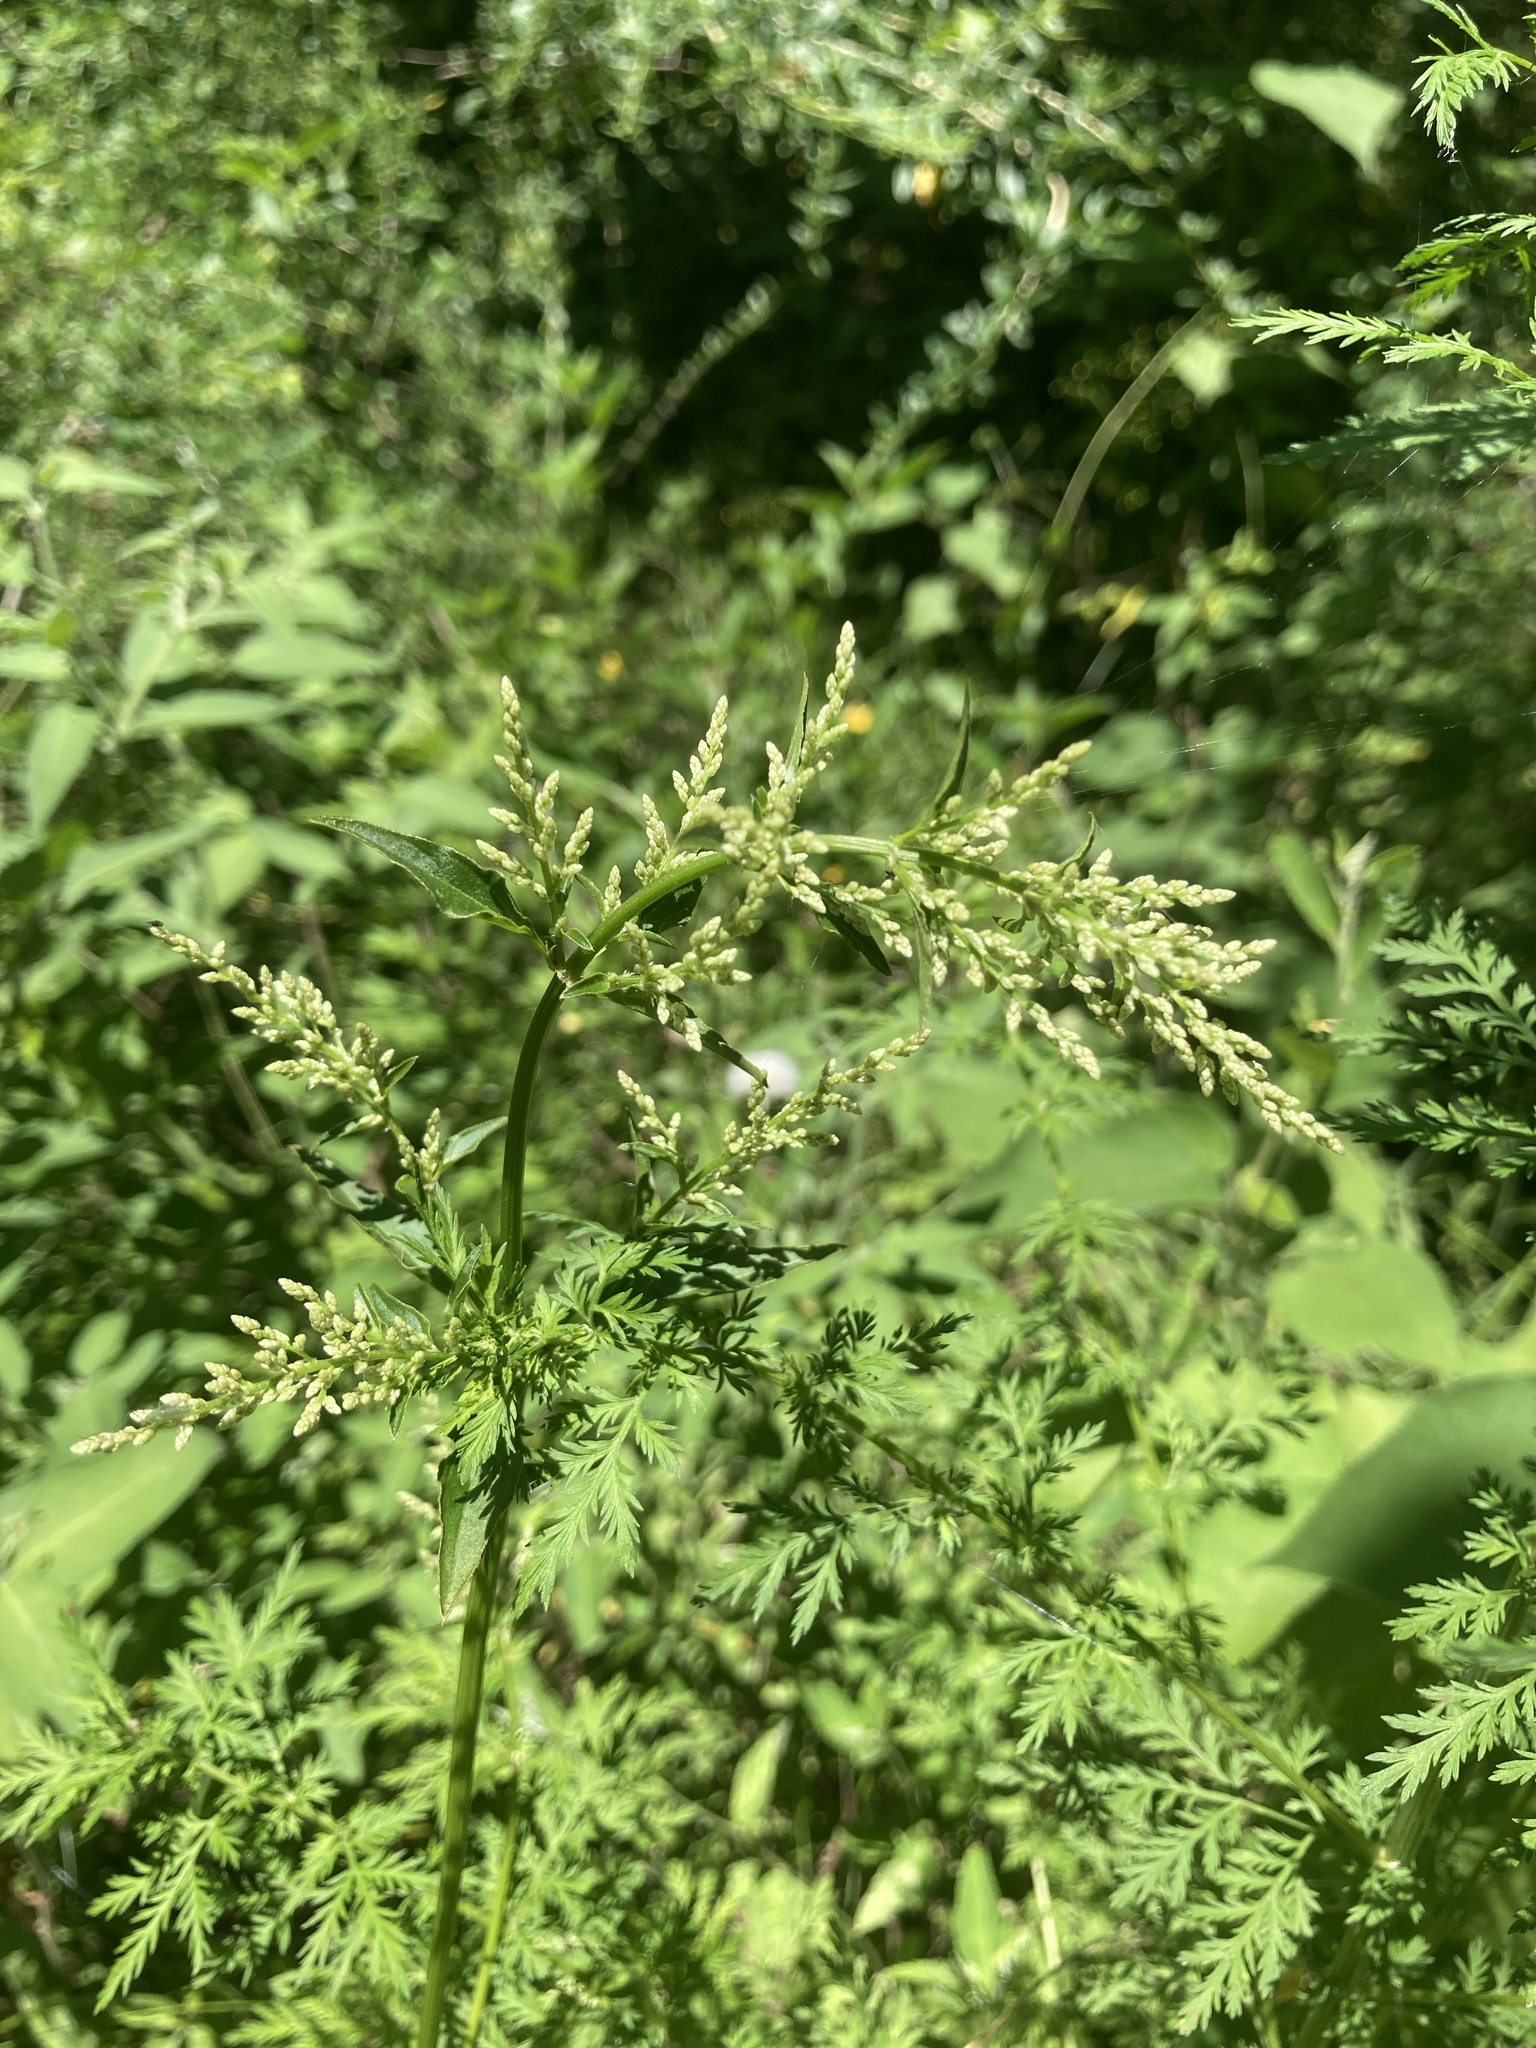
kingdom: Plantae
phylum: Tracheophyta
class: Magnoliopsida
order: Caryophyllales
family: Amaranthaceae
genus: Iresine
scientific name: Iresine diffusa
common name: Juba's-bush
